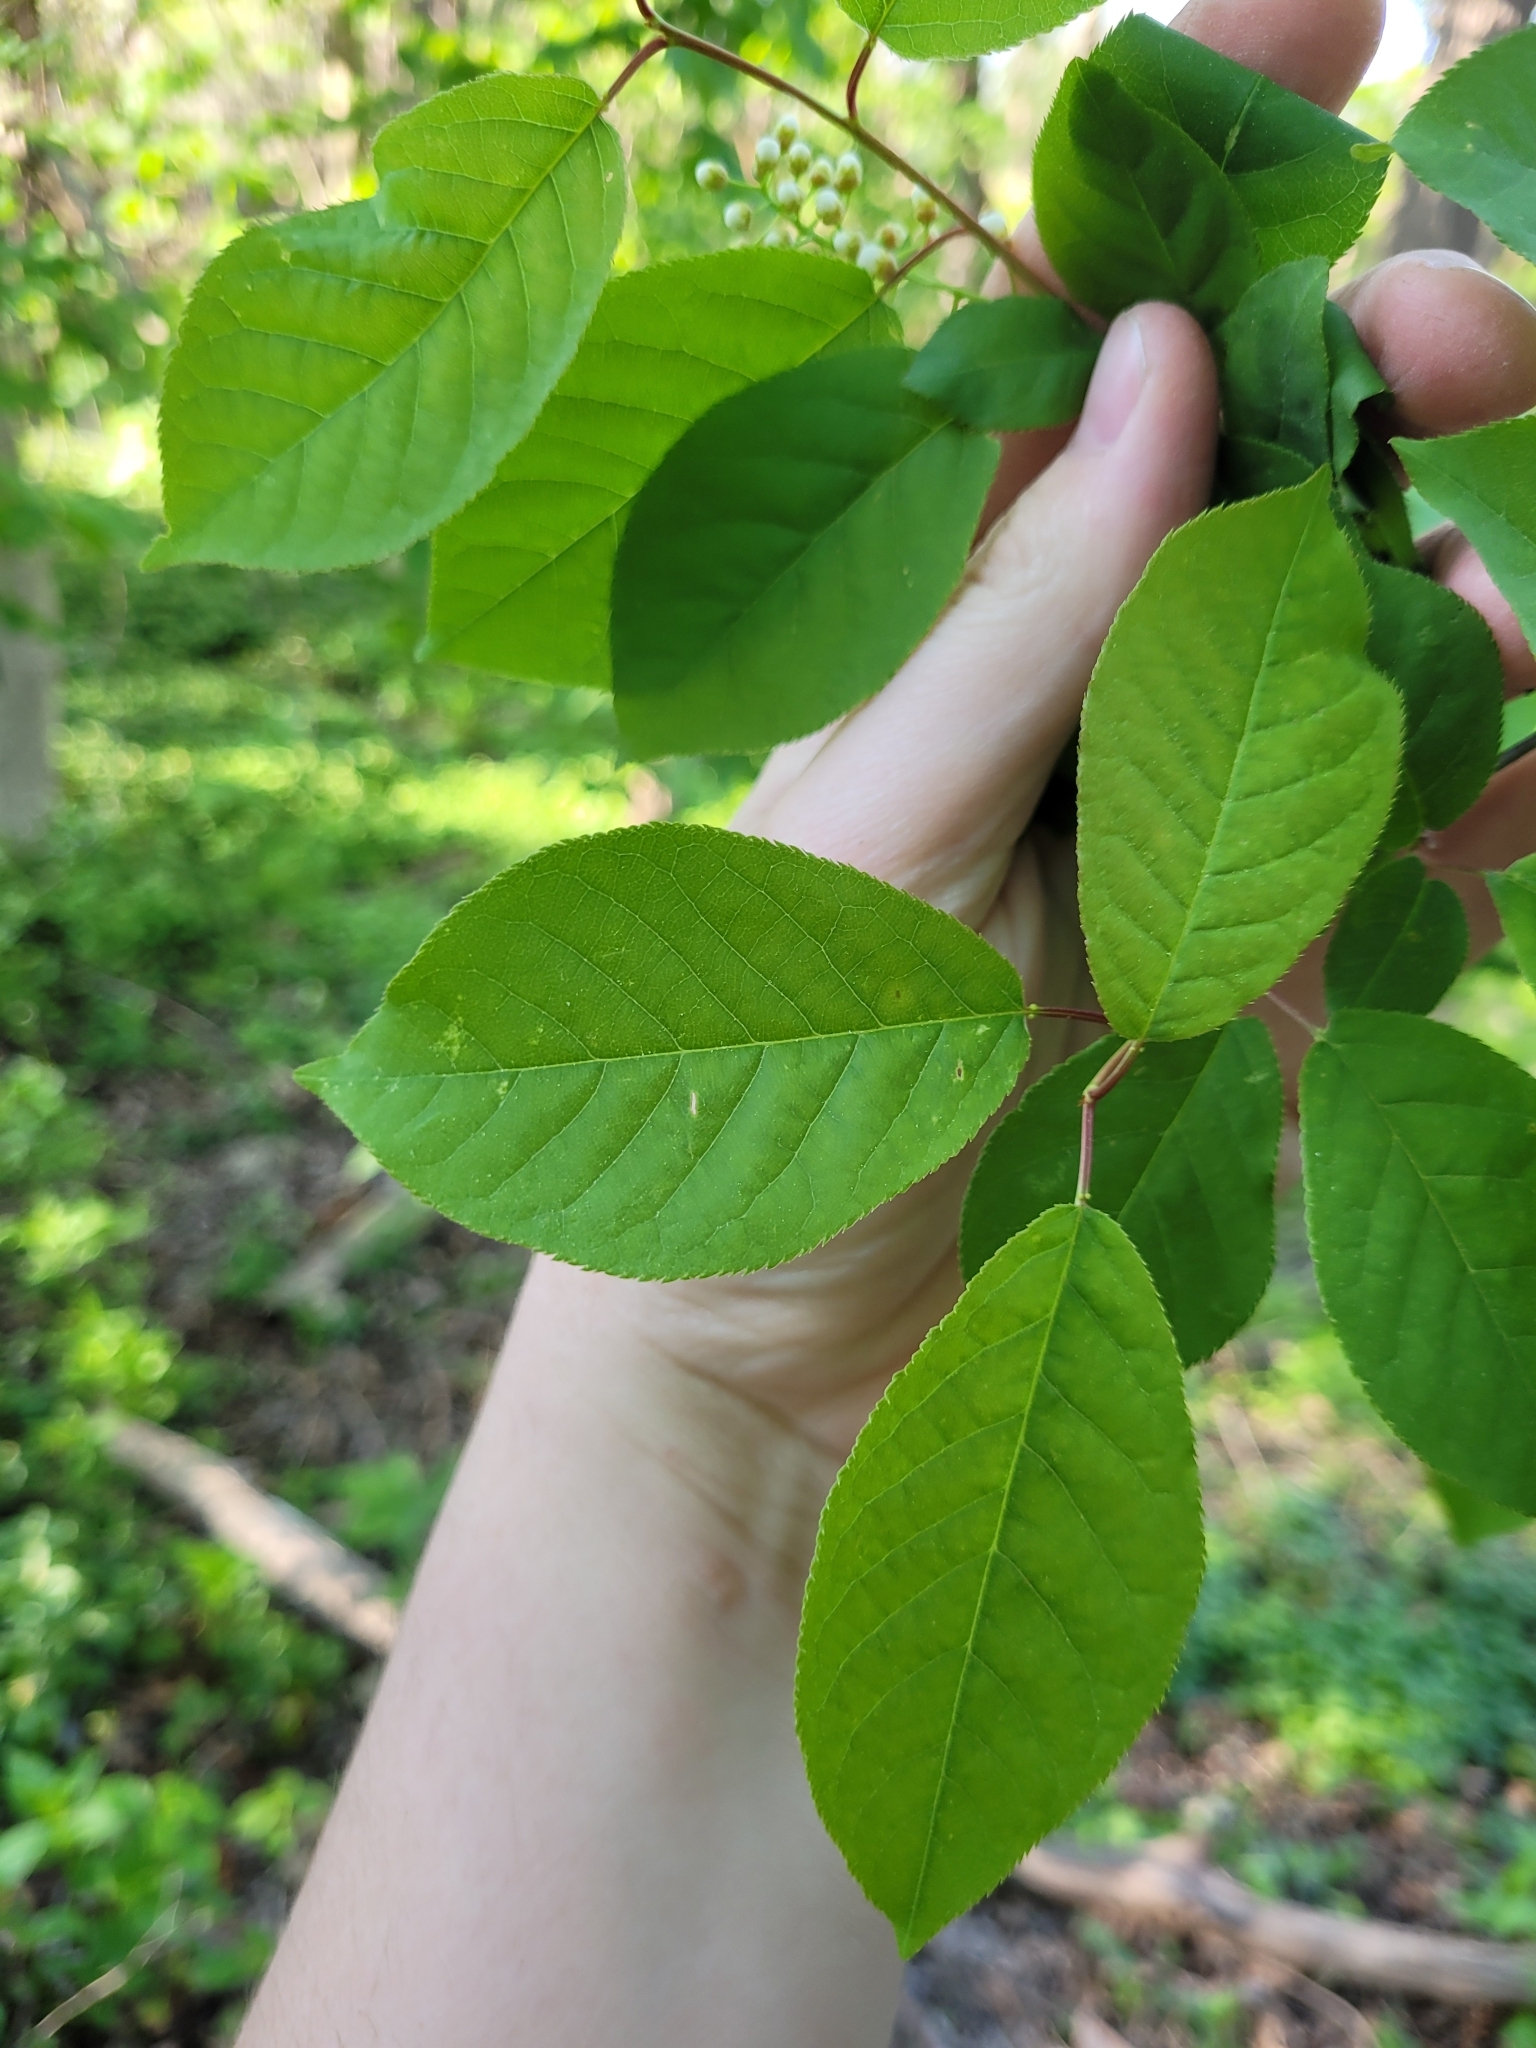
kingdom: Plantae
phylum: Tracheophyta
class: Magnoliopsida
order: Rosales
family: Rosaceae
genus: Prunus
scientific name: Prunus virginiana
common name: Chokecherry
